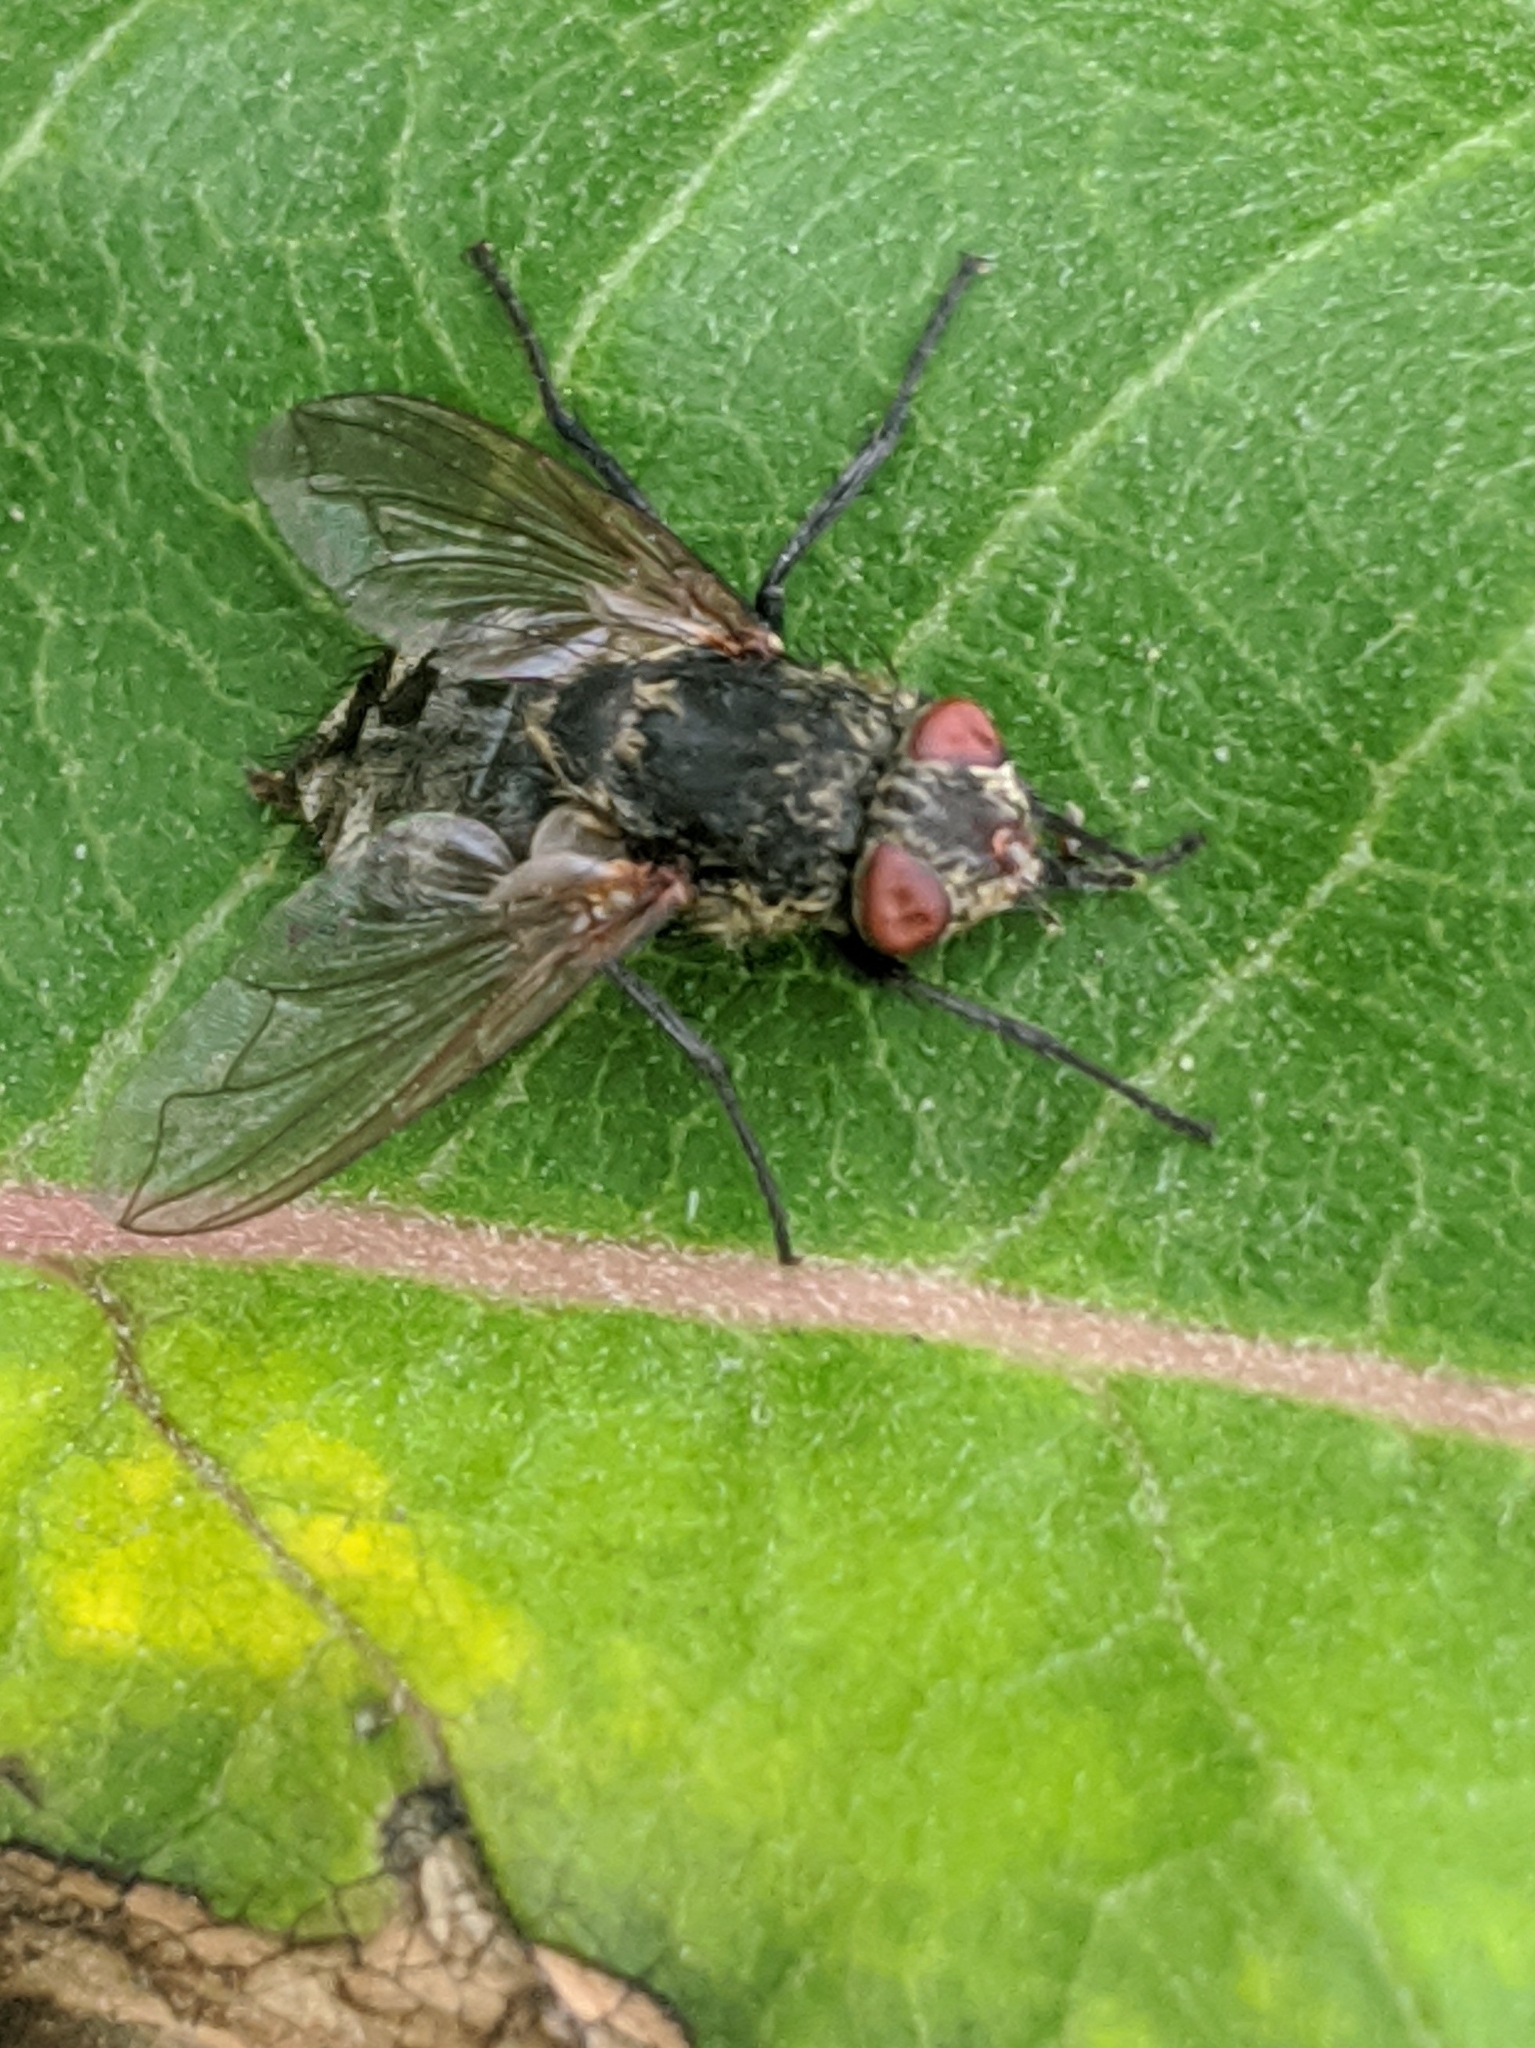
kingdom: Animalia
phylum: Arthropoda
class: Insecta
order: Diptera
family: Polleniidae
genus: Pollenia
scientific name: Pollenia
